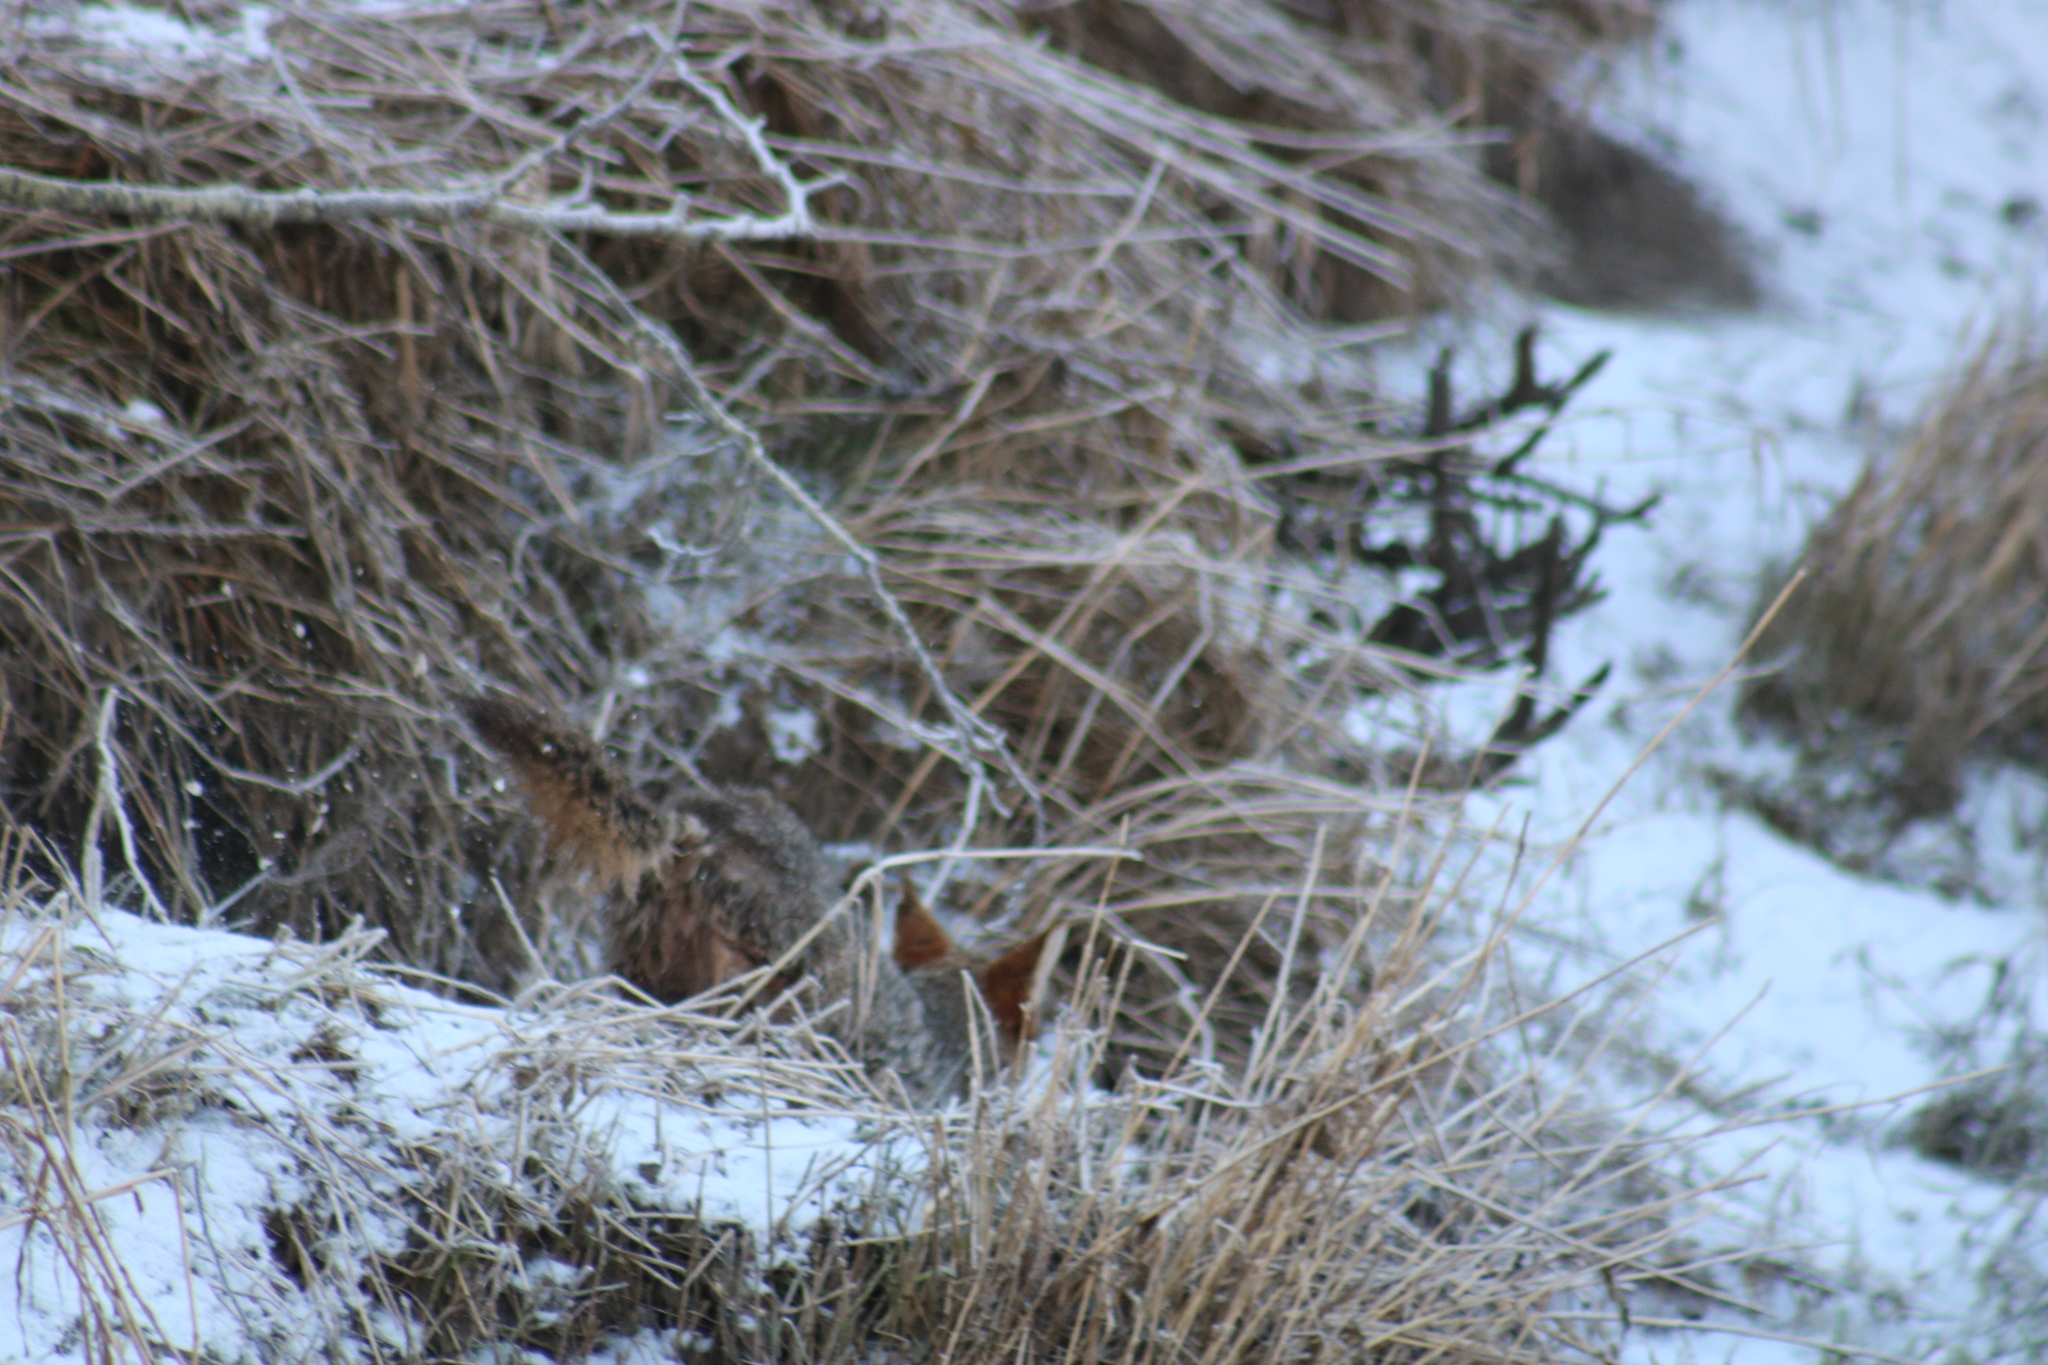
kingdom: Animalia
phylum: Chordata
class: Mammalia
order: Carnivora
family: Canidae
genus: Canis
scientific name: Canis latrans
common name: Coyote
